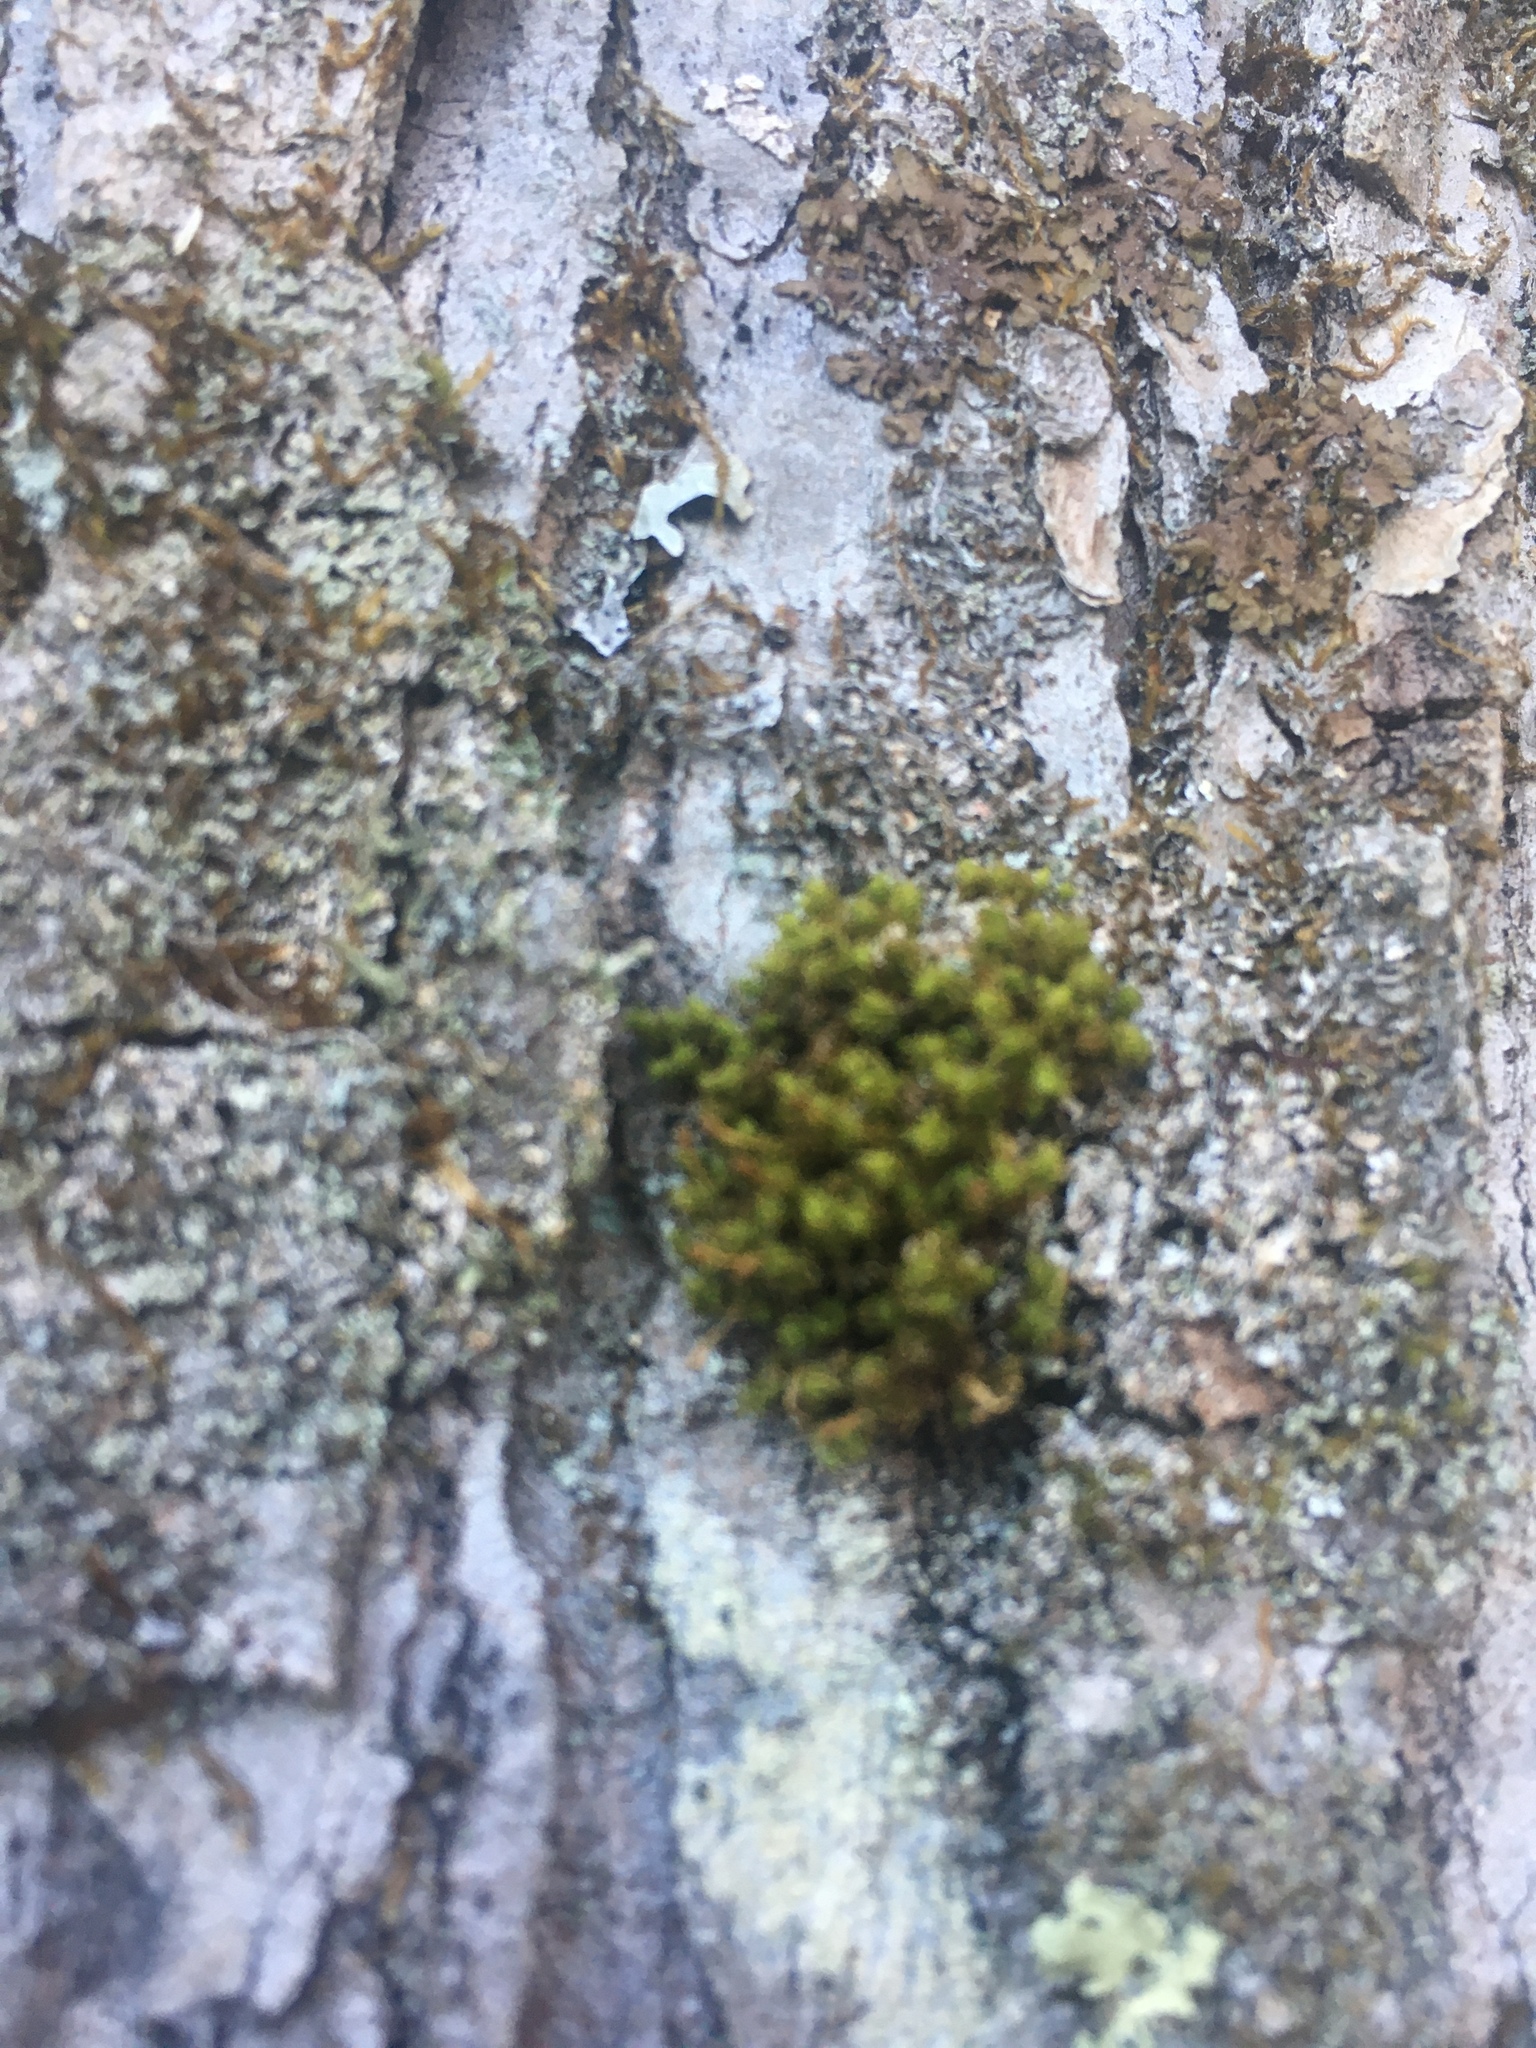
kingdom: Plantae
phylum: Bryophyta
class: Bryopsida
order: Orthotrichales
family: Orthotrichaceae
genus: Ulota
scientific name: Ulota crispa
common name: Crisped pincushion moss
